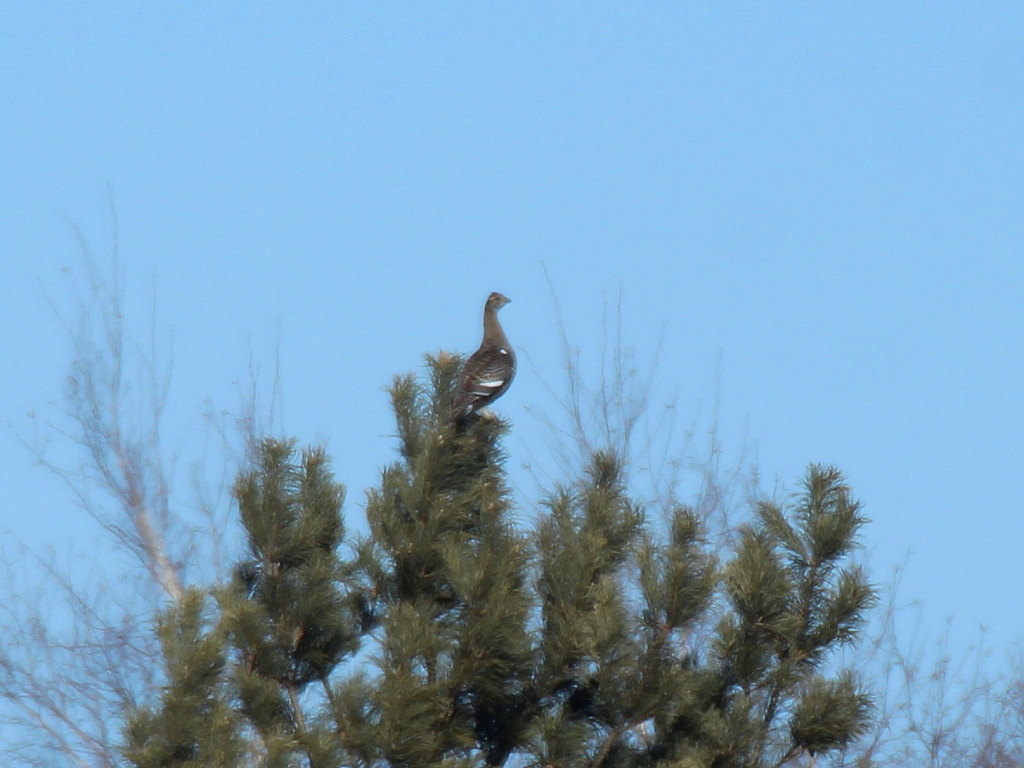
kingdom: Animalia
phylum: Chordata
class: Aves
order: Galliformes
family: Phasianidae
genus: Lyrurus
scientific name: Lyrurus tetrix
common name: Black grouse
